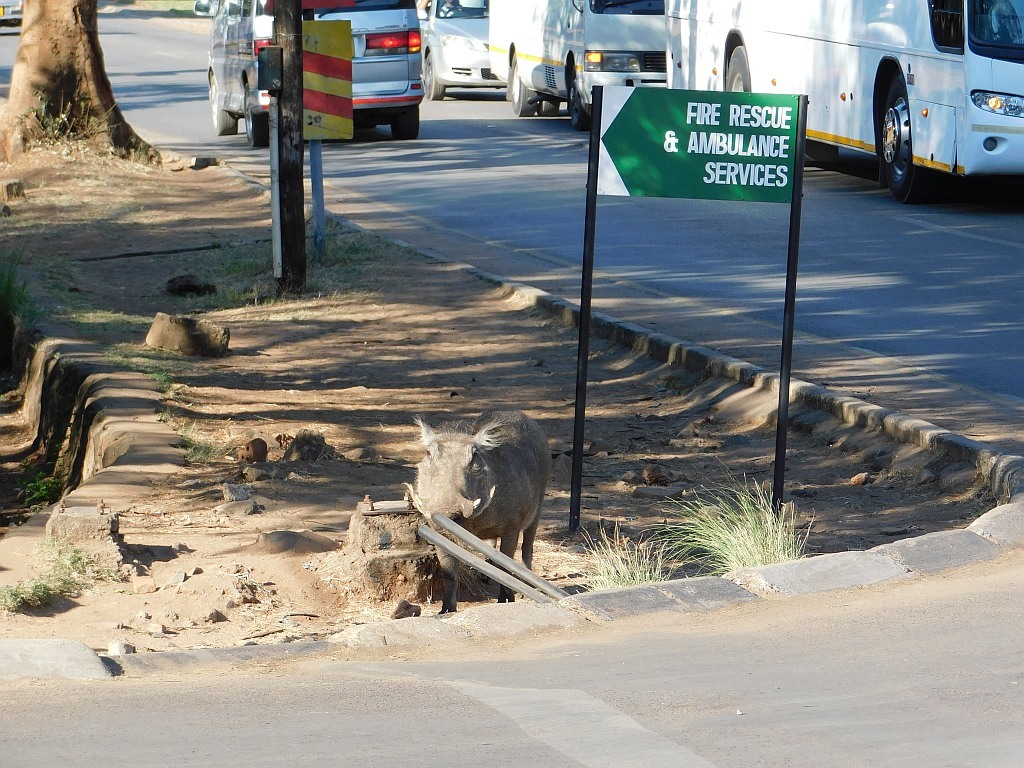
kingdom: Animalia
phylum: Chordata
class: Mammalia
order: Artiodactyla
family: Suidae
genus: Phacochoerus
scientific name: Phacochoerus africanus
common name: Common warthog
